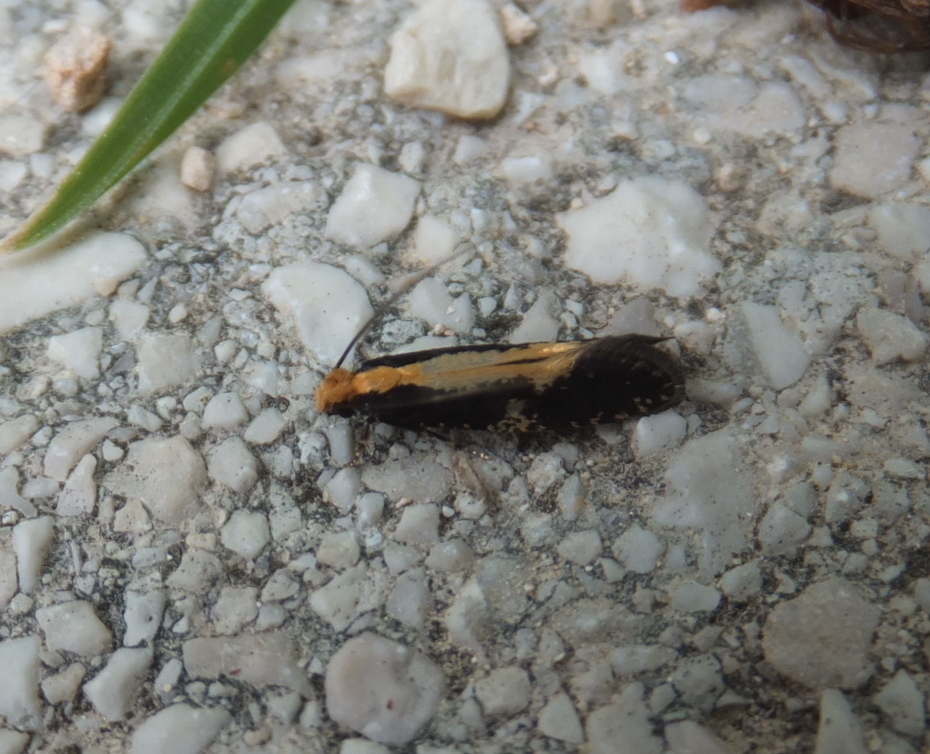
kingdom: Animalia
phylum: Arthropoda
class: Insecta
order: Lepidoptera
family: Tineidae
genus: Monopis
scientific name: Monopis obviella
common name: Tineid moth
